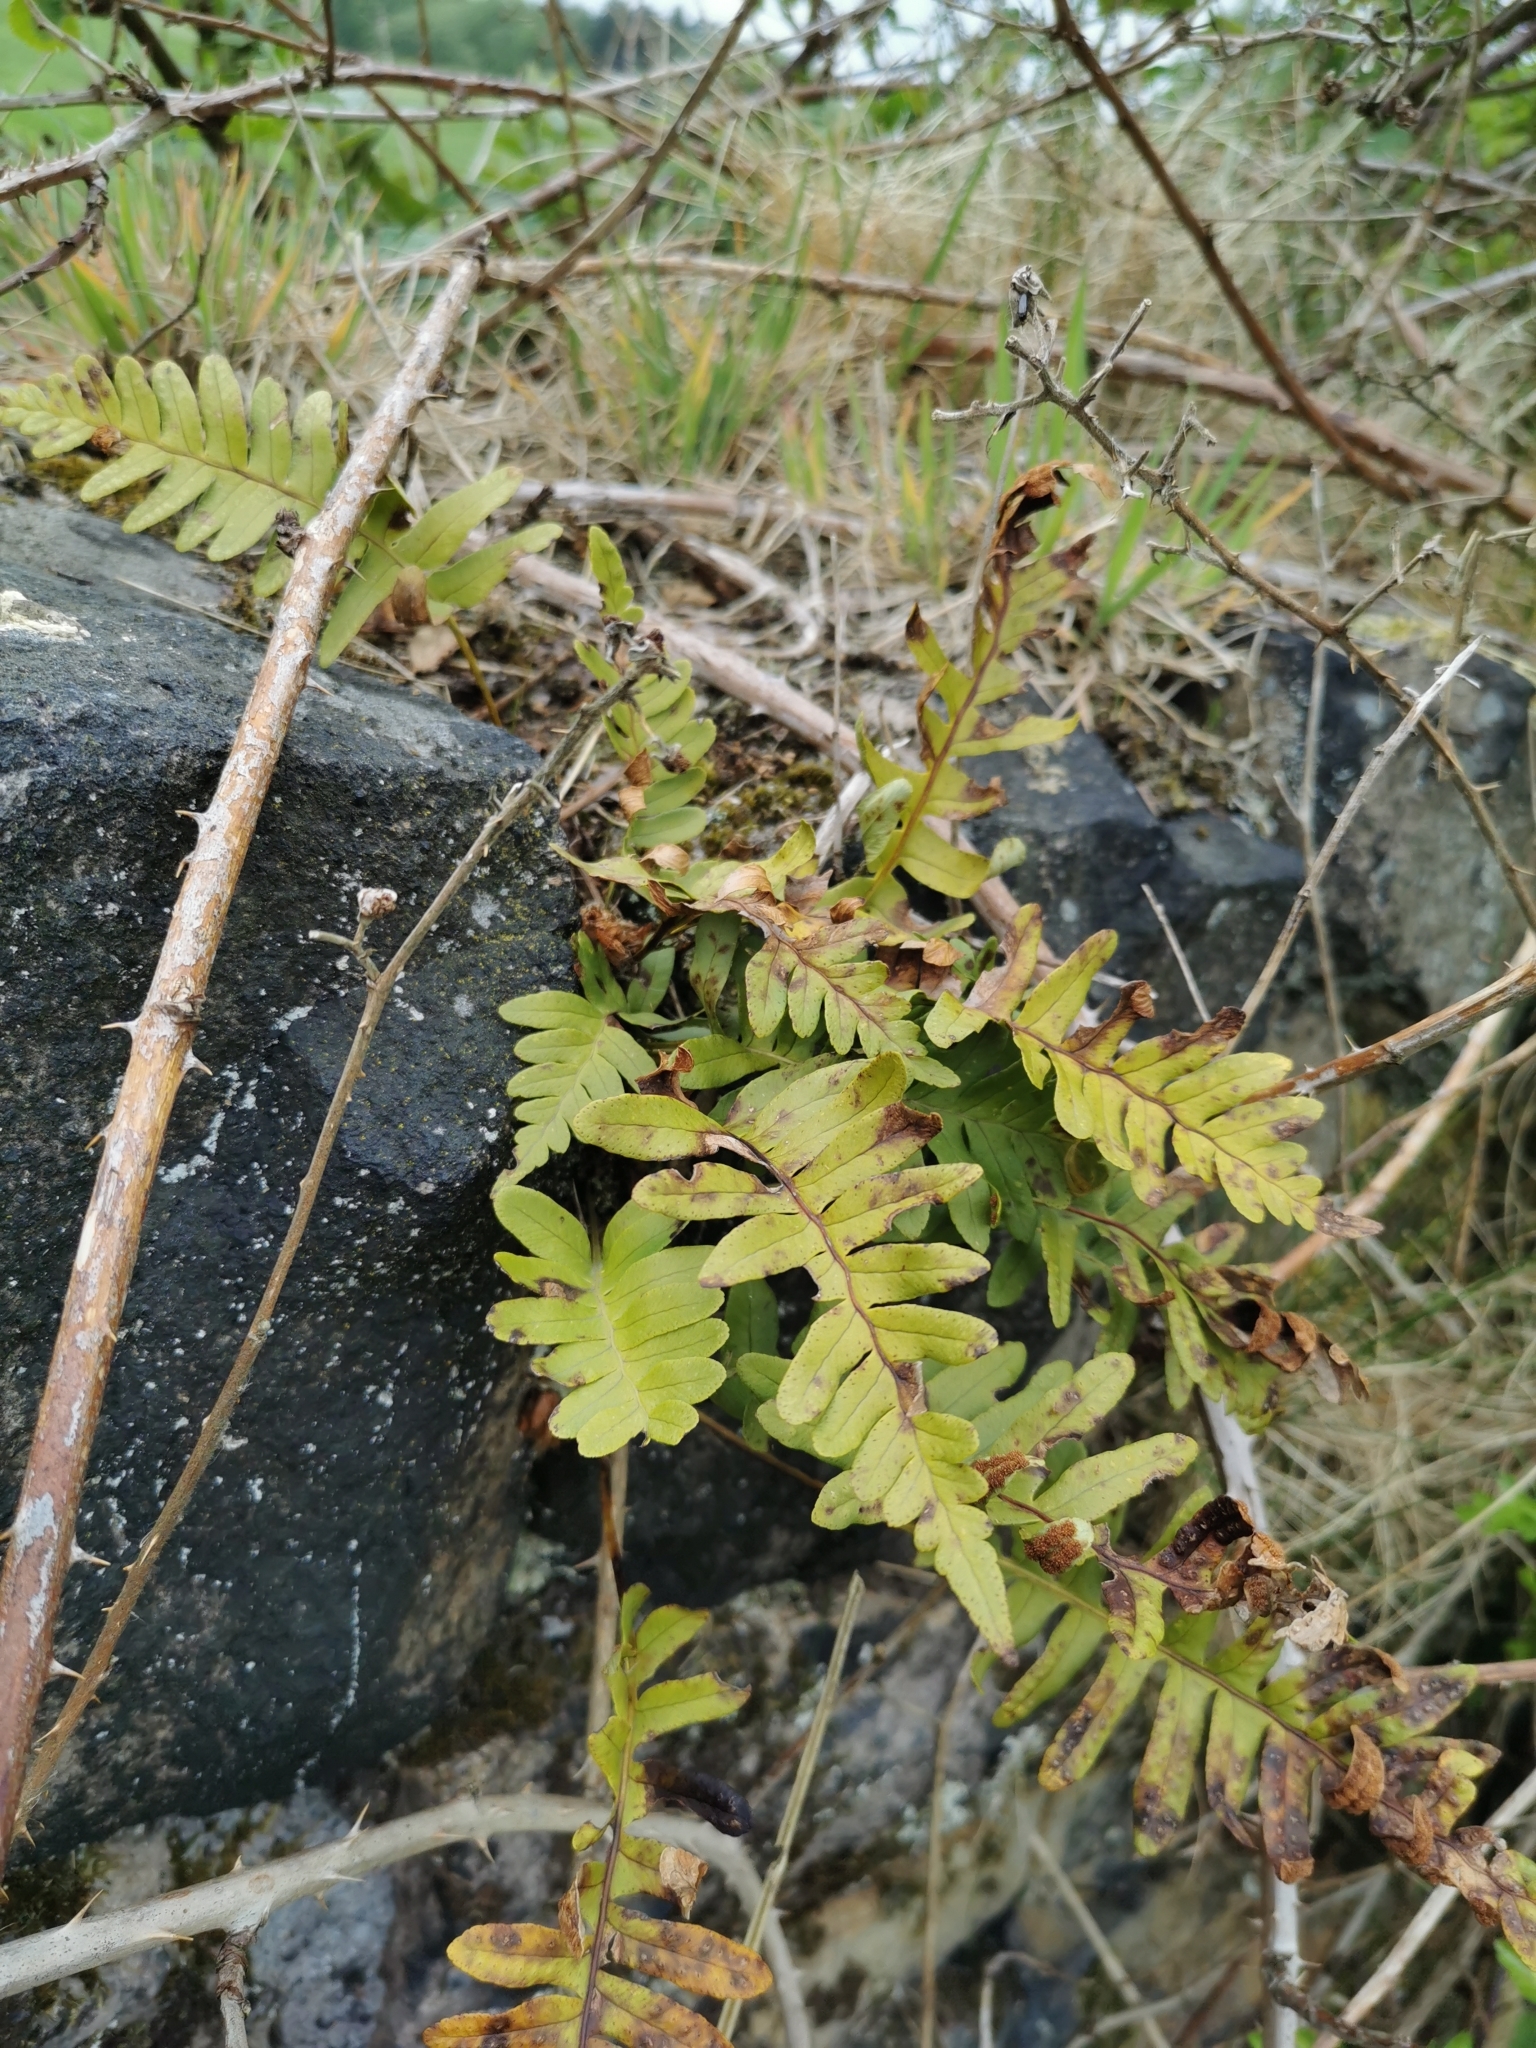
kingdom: Plantae
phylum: Tracheophyta
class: Polypodiopsida
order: Polypodiales
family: Polypodiaceae
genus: Polypodium
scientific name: Polypodium vulgare
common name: Common polypody
